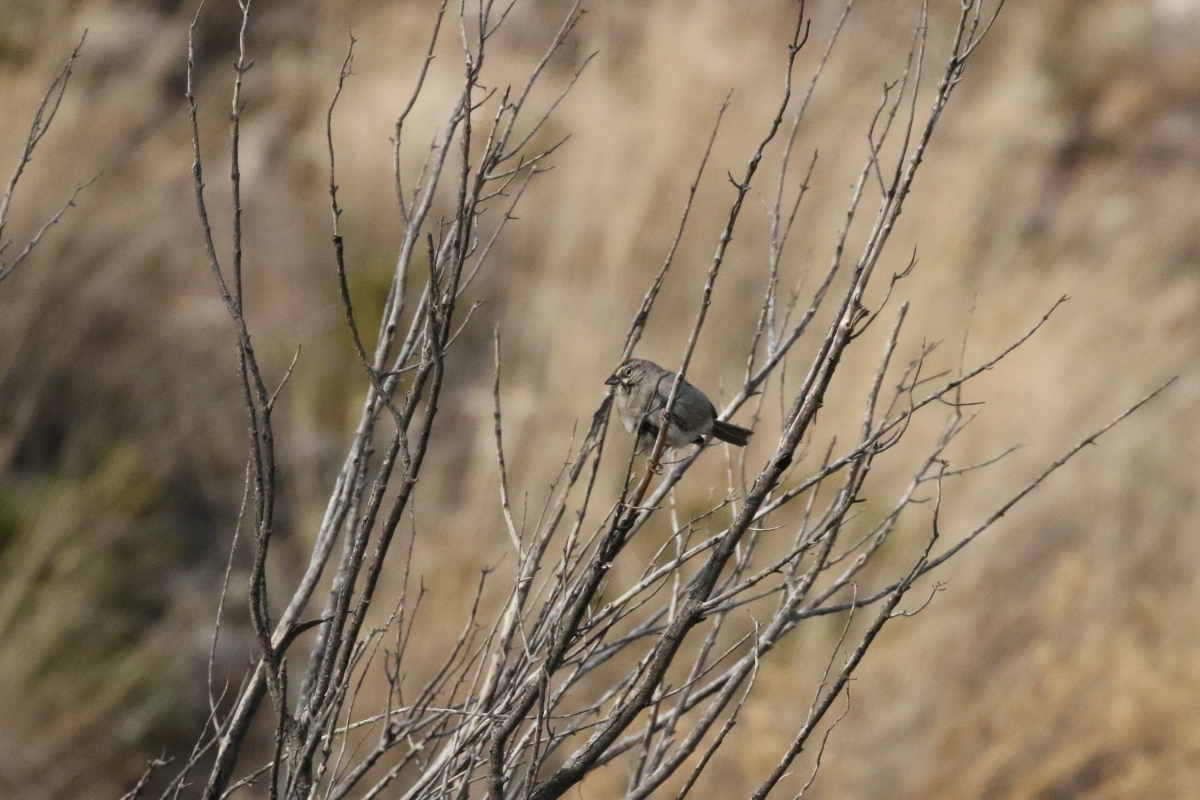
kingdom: Animalia
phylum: Chordata
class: Aves
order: Passeriformes
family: Passerellidae
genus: Aimophila
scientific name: Aimophila ruficeps
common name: Rufous-crowned sparrow
